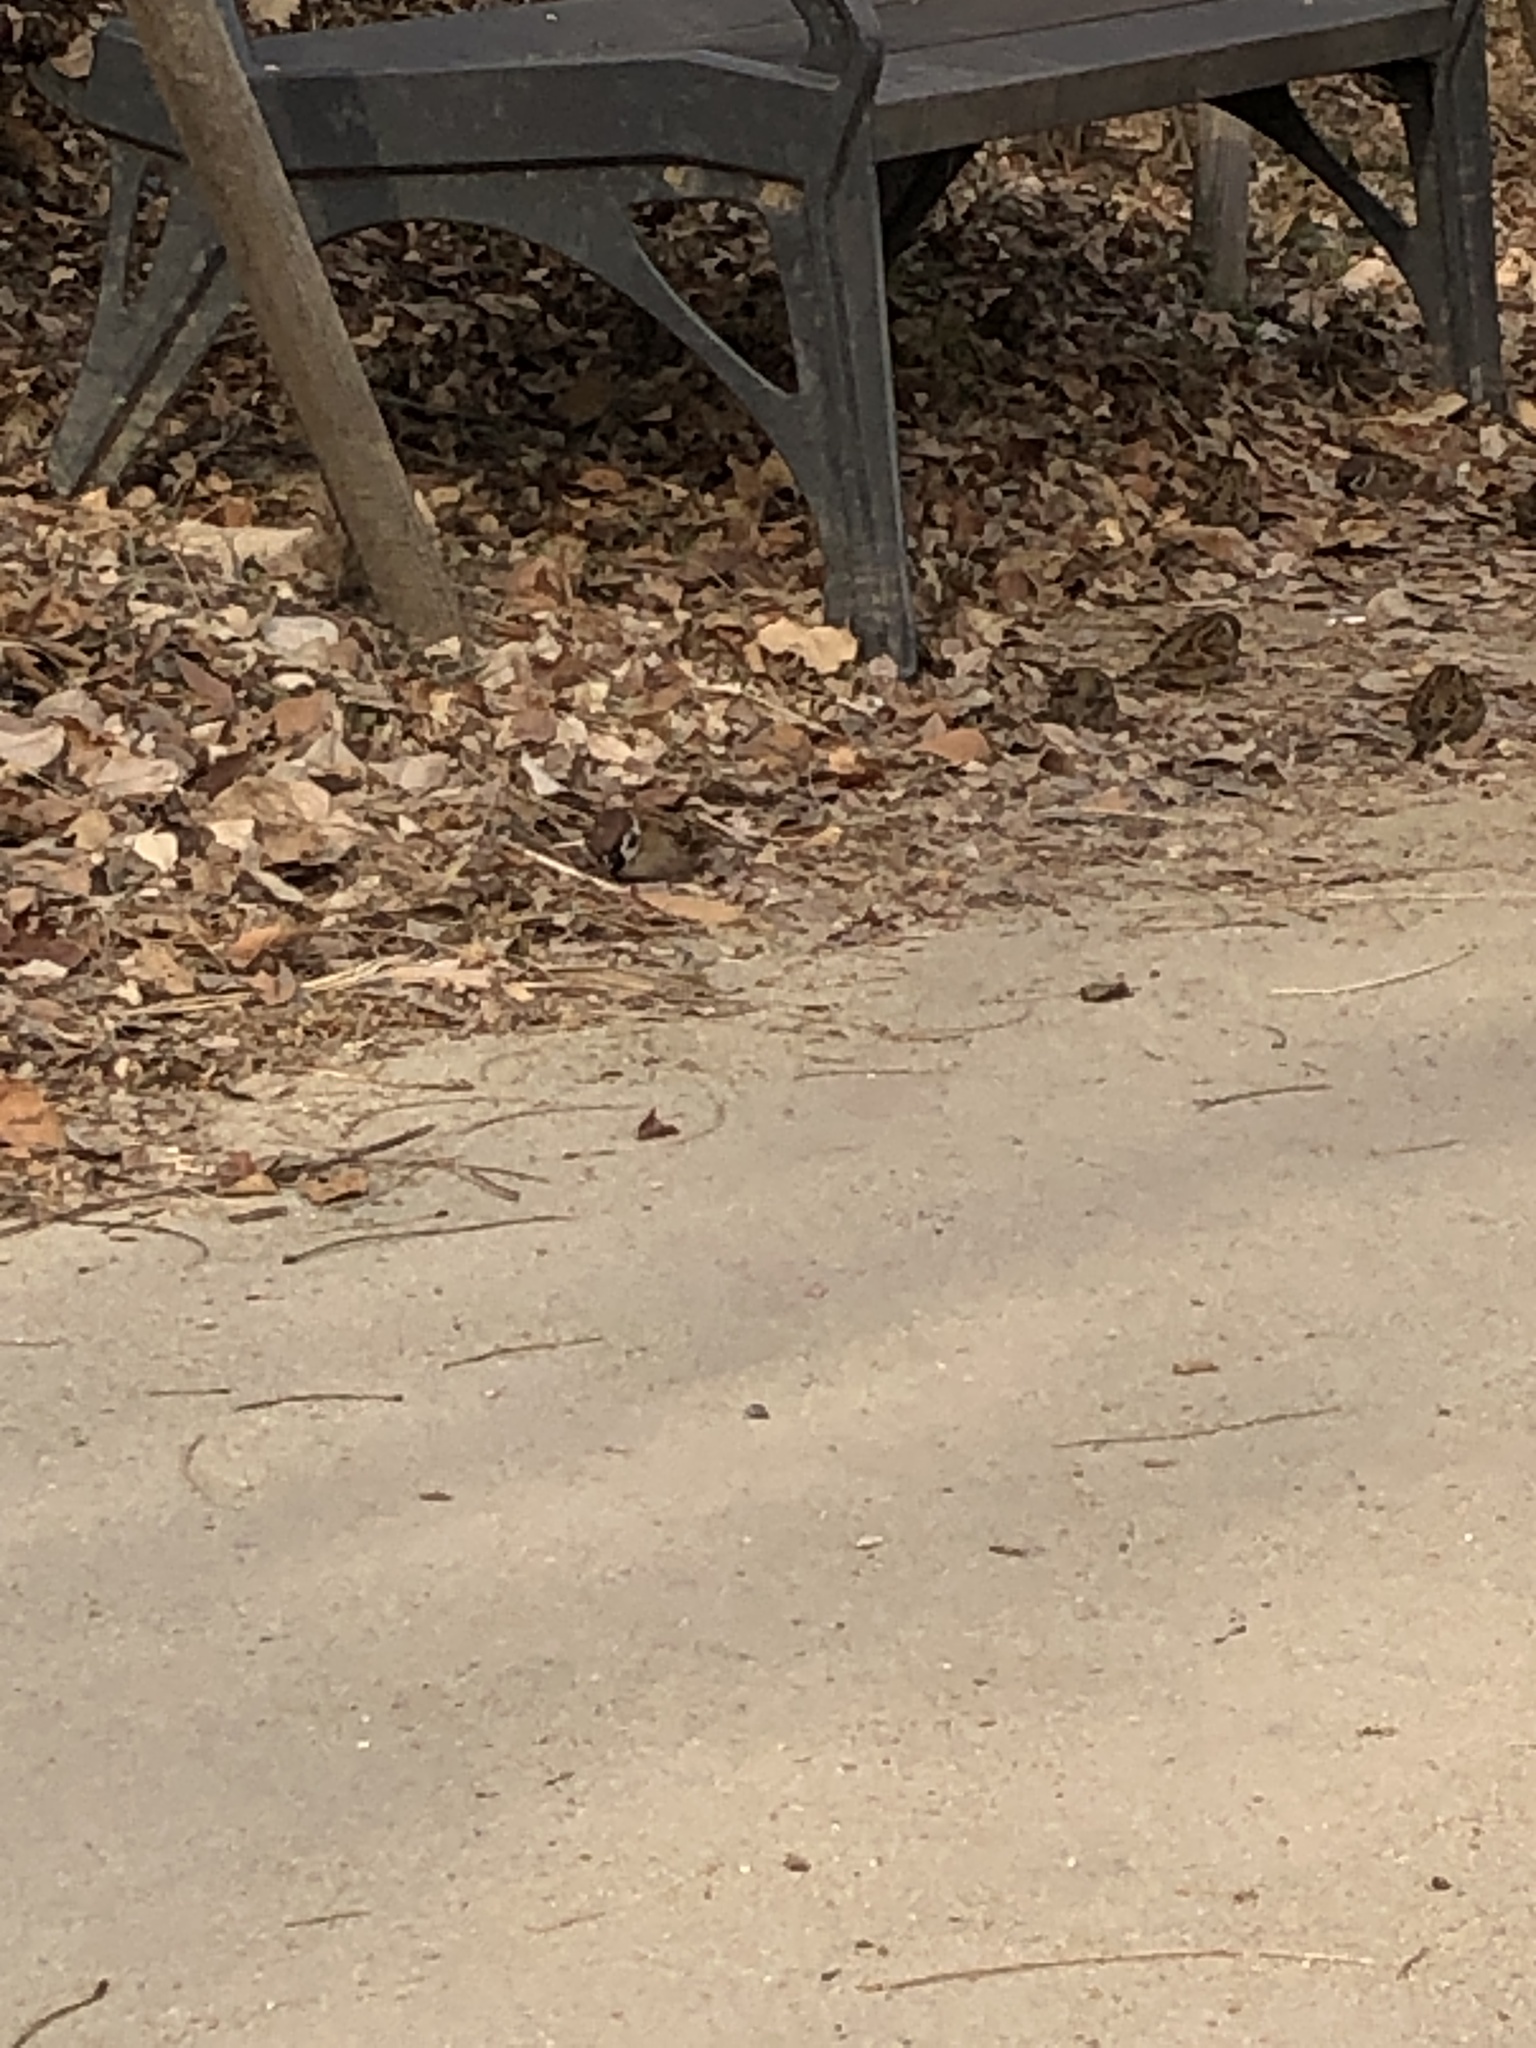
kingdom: Animalia
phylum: Chordata
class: Aves
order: Passeriformes
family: Passeridae
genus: Passer
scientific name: Passer montanus
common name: Eurasian tree sparrow
